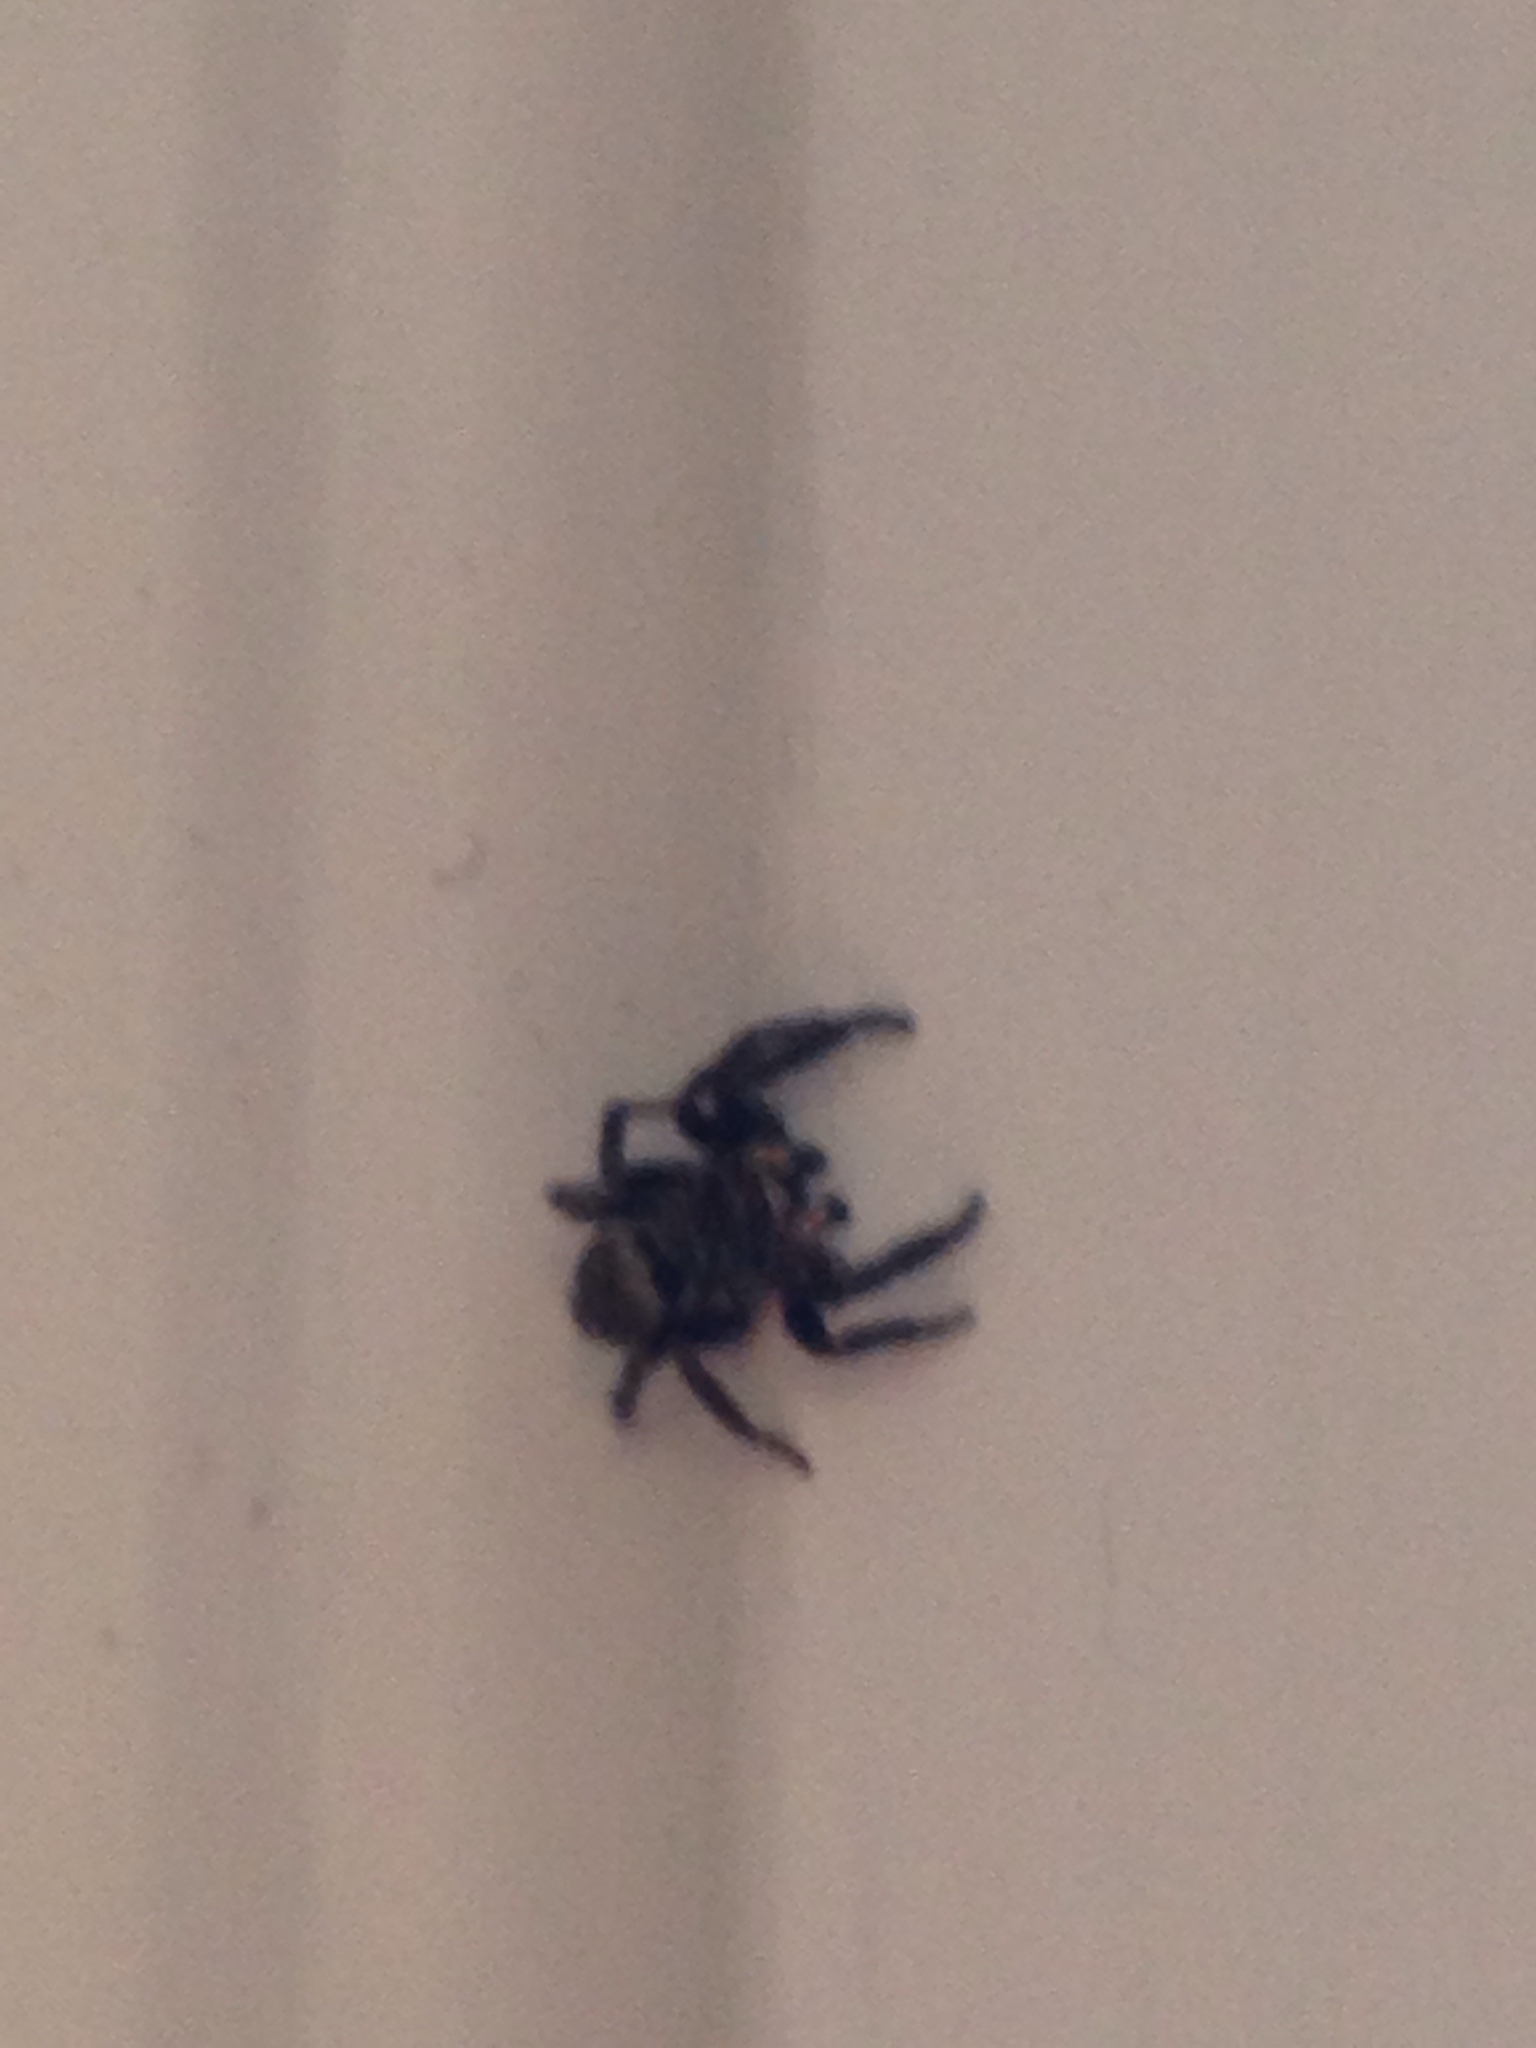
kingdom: Animalia
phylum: Arthropoda
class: Arachnida
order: Araneae
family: Salticidae
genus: Pseudeuophrys
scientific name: Pseudeuophrys erratica
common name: Jumping spider
